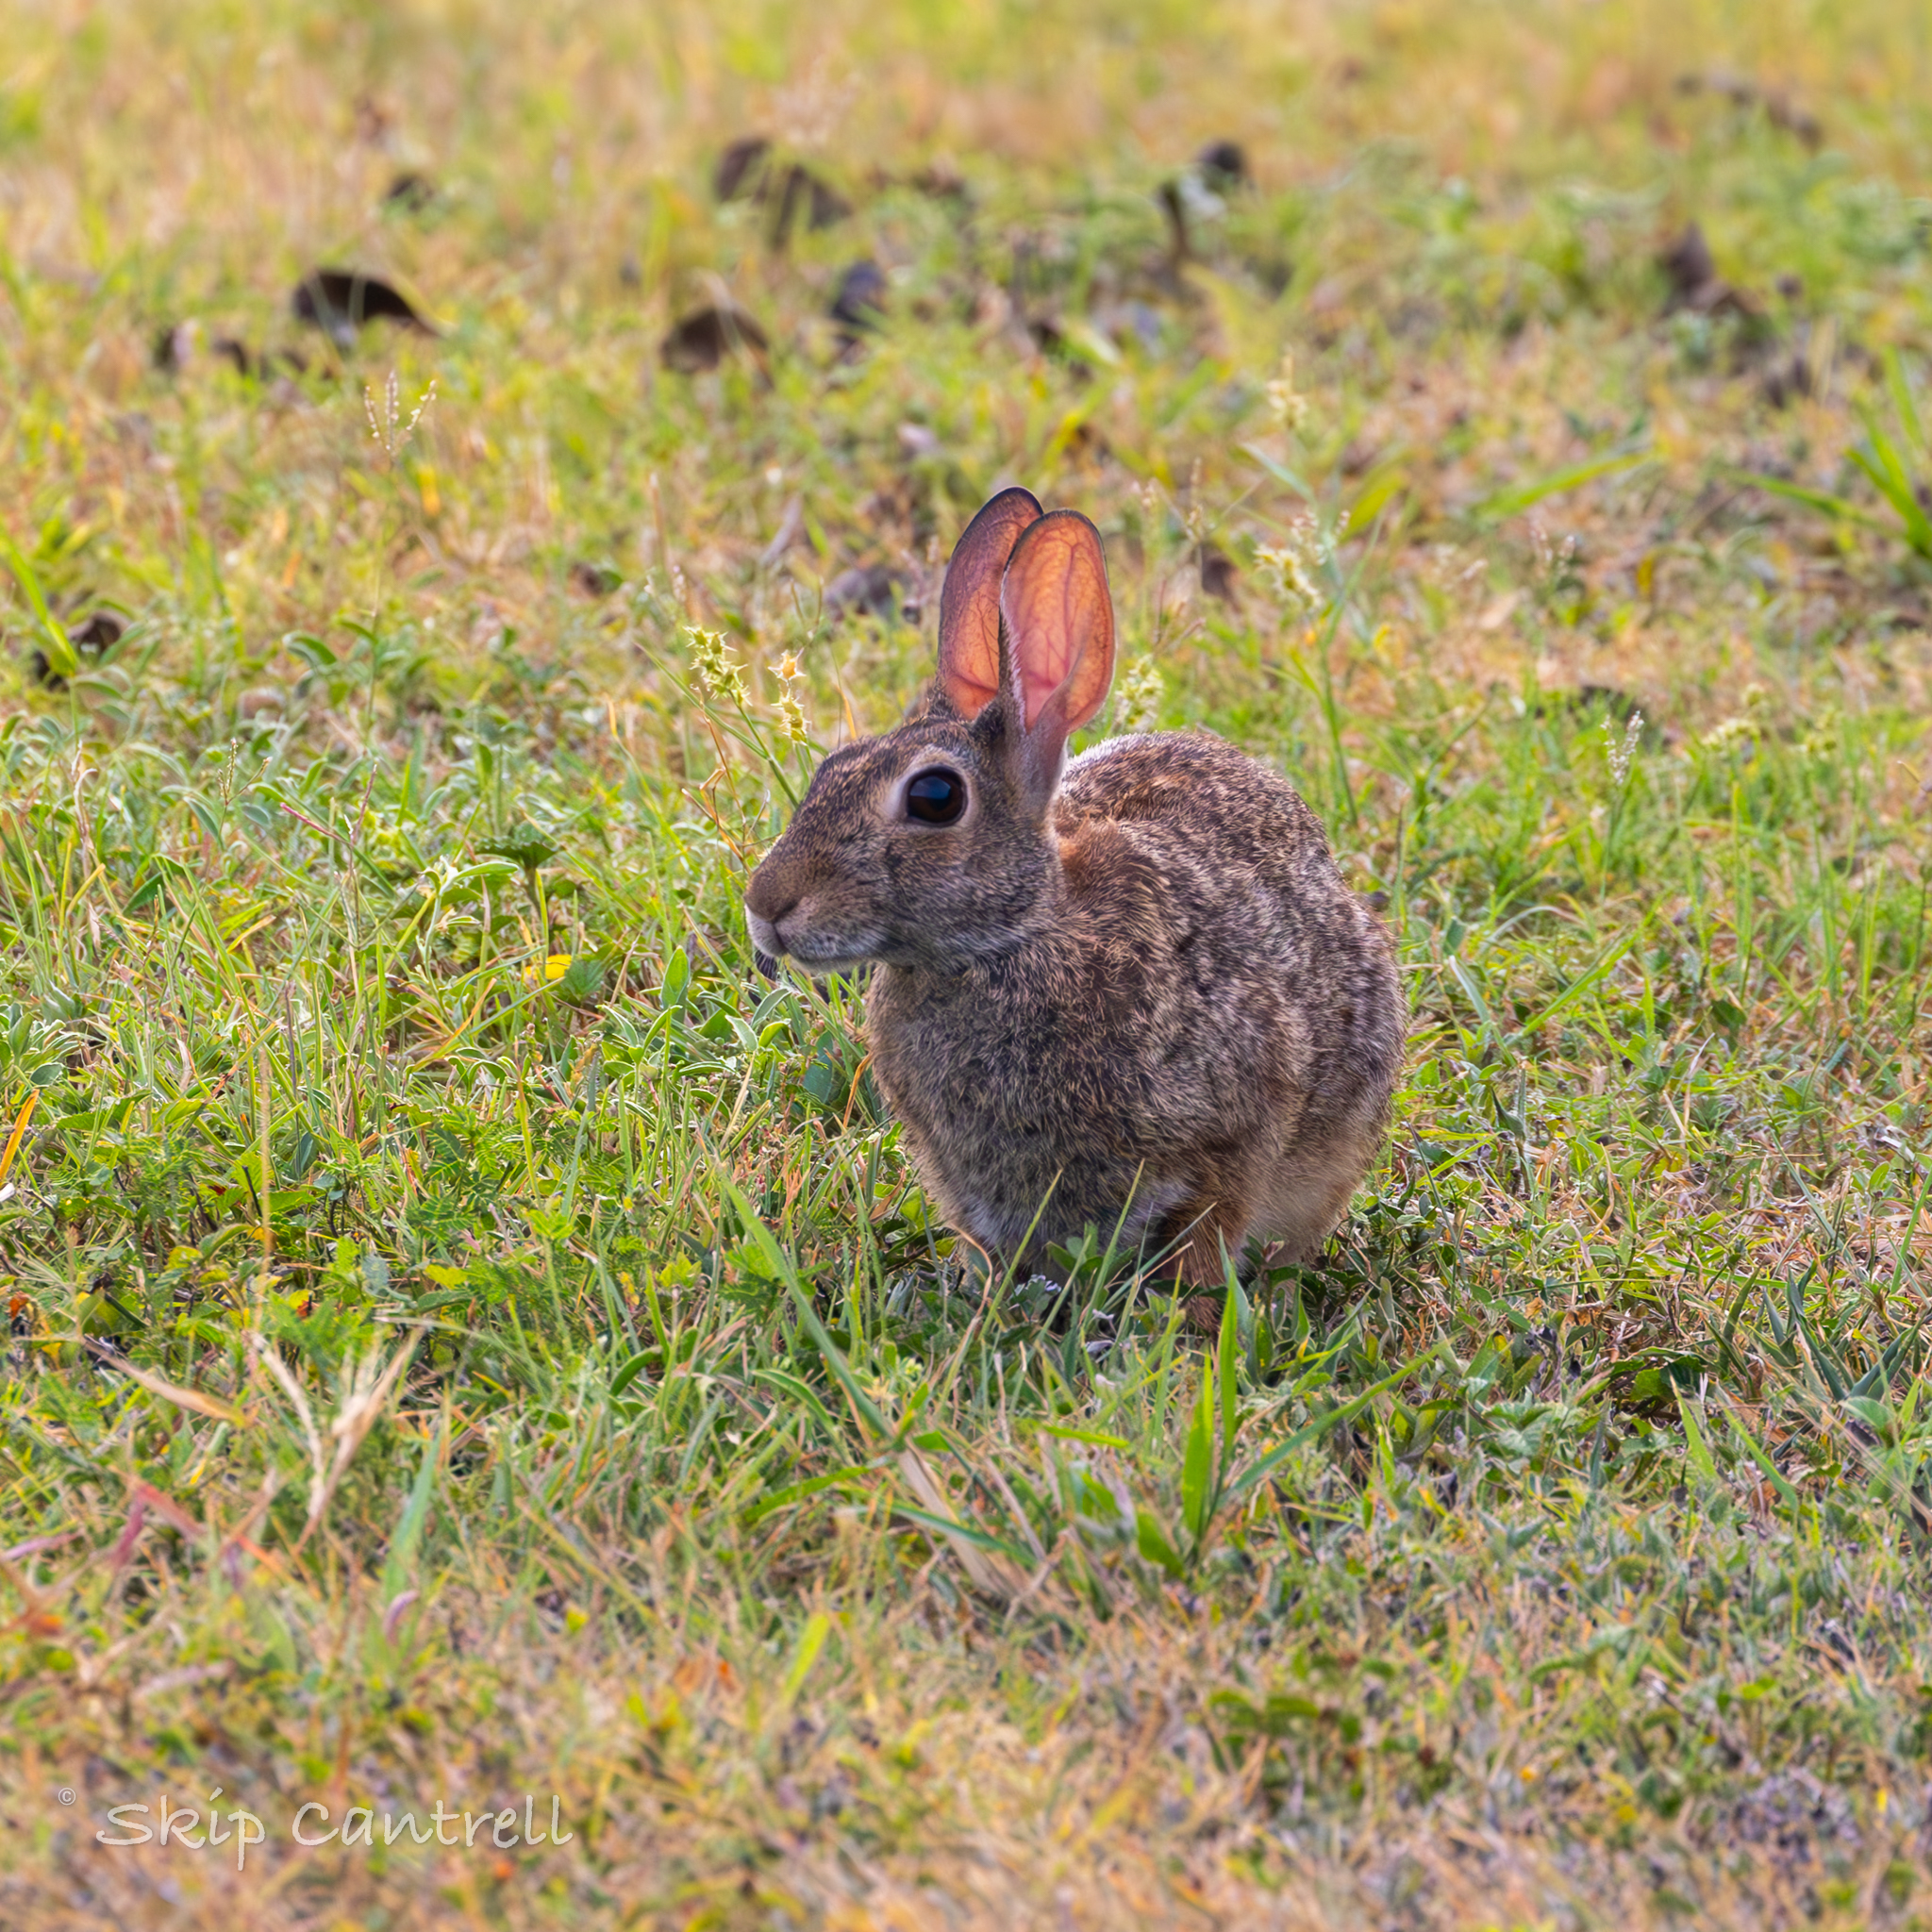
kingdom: Animalia
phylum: Chordata
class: Mammalia
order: Lagomorpha
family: Leporidae
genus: Sylvilagus
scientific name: Sylvilagus floridanus
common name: Eastern cottontail
